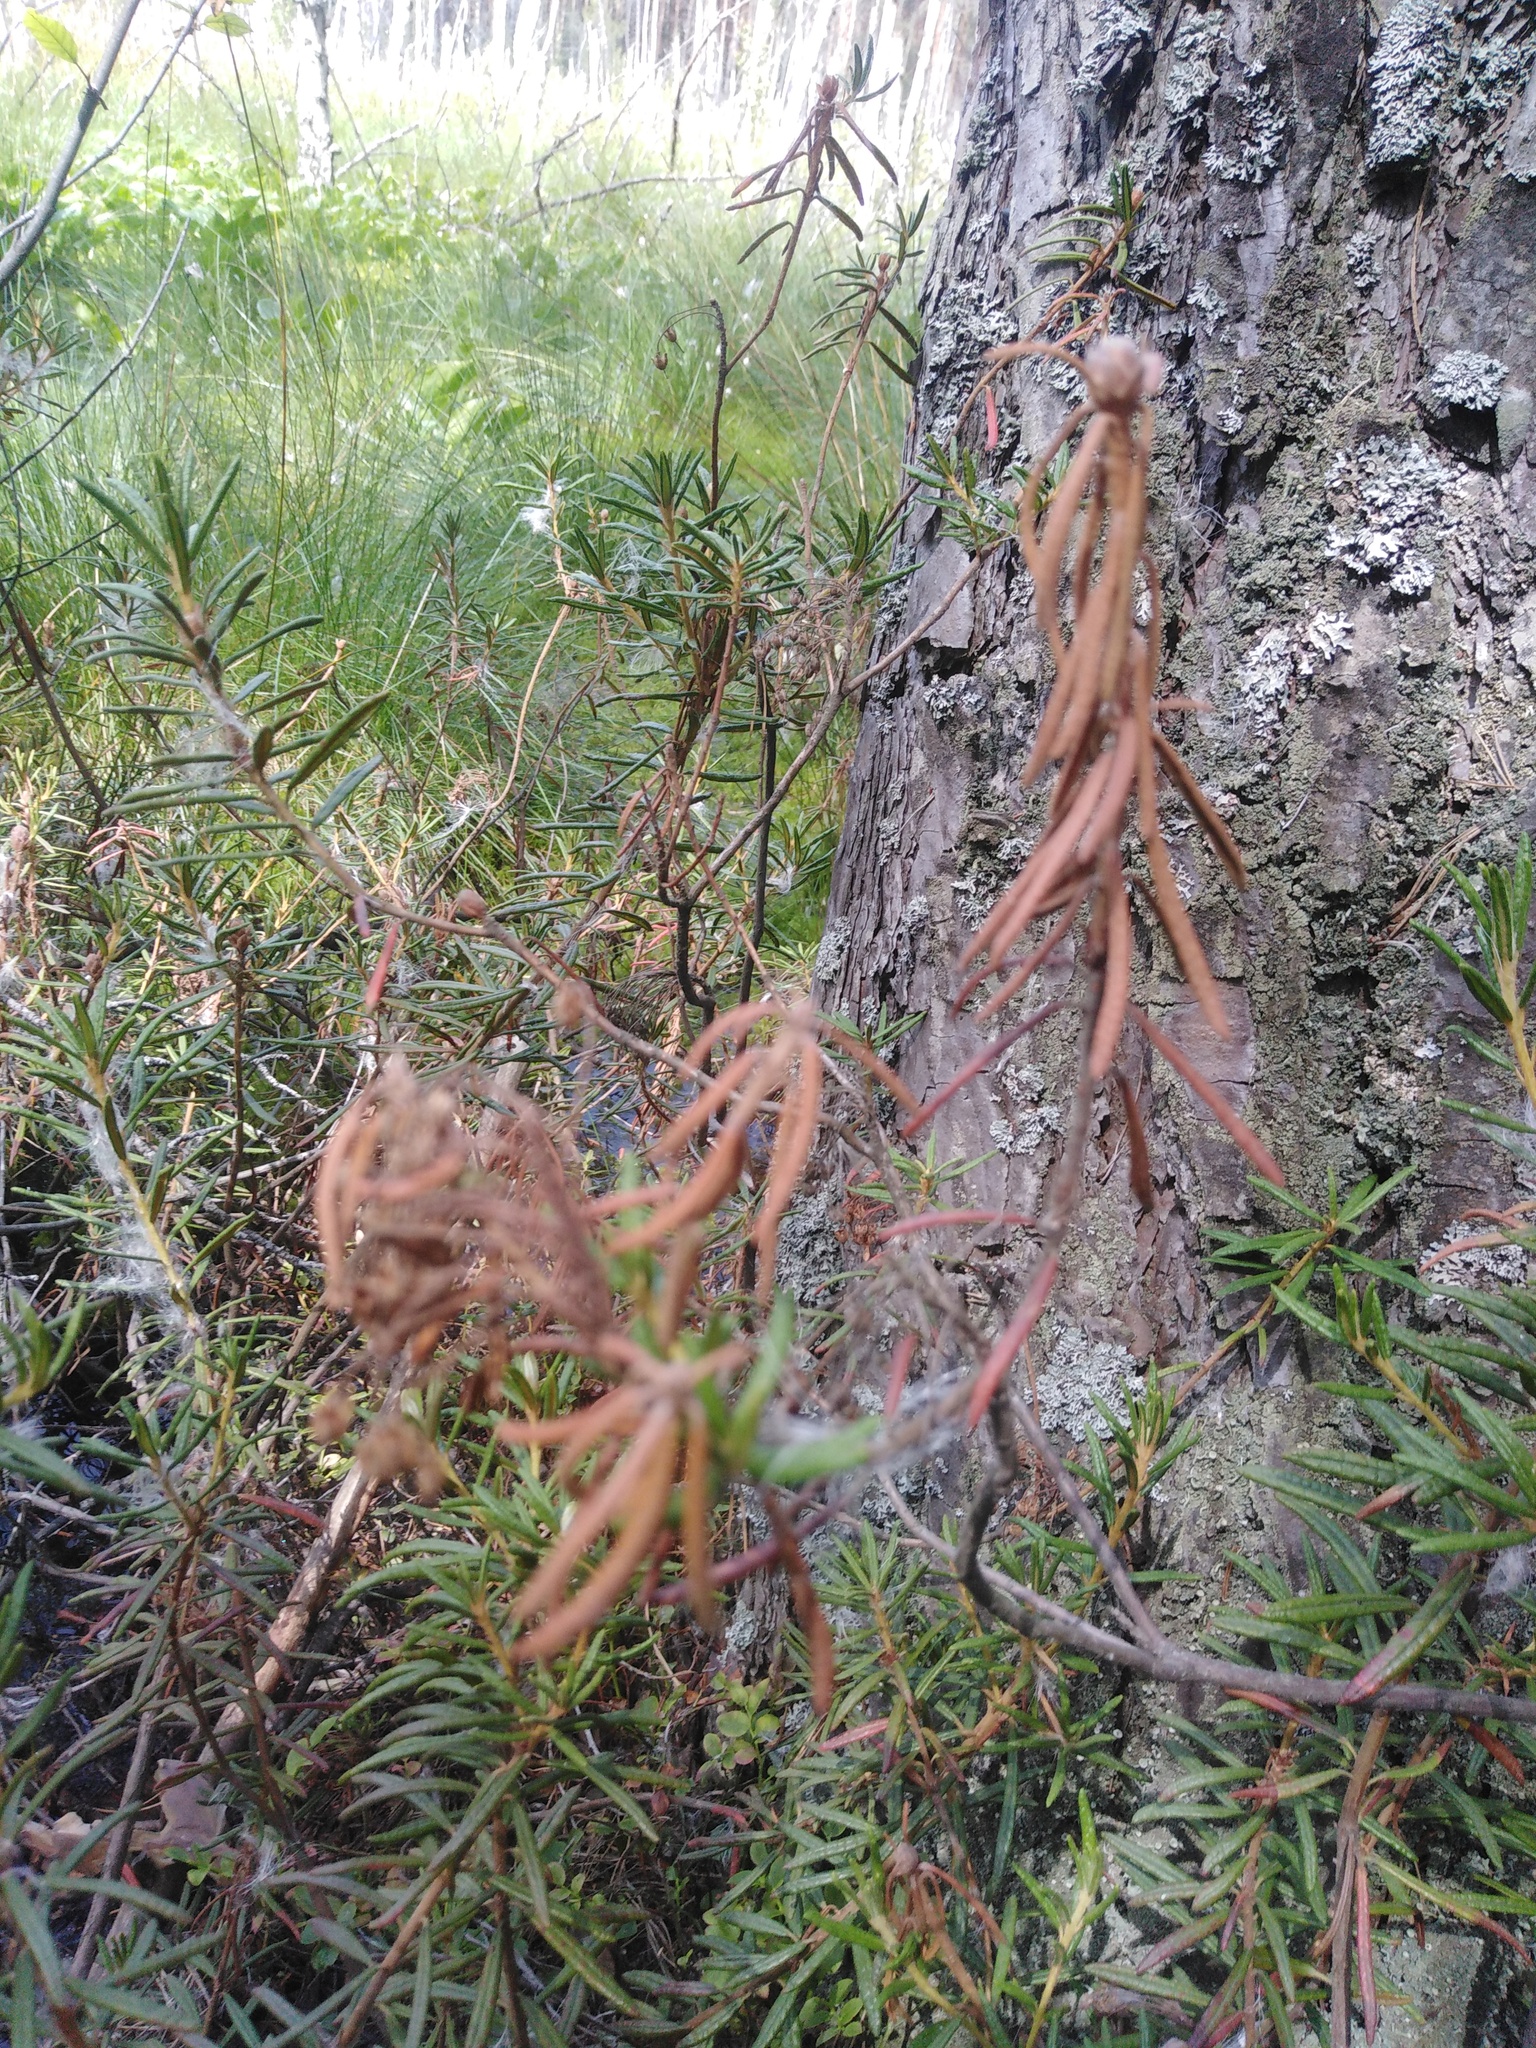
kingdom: Plantae
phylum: Tracheophyta
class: Magnoliopsida
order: Ericales
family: Ericaceae
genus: Rhododendron
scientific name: Rhododendron tomentosum
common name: Marsh labrador tea
